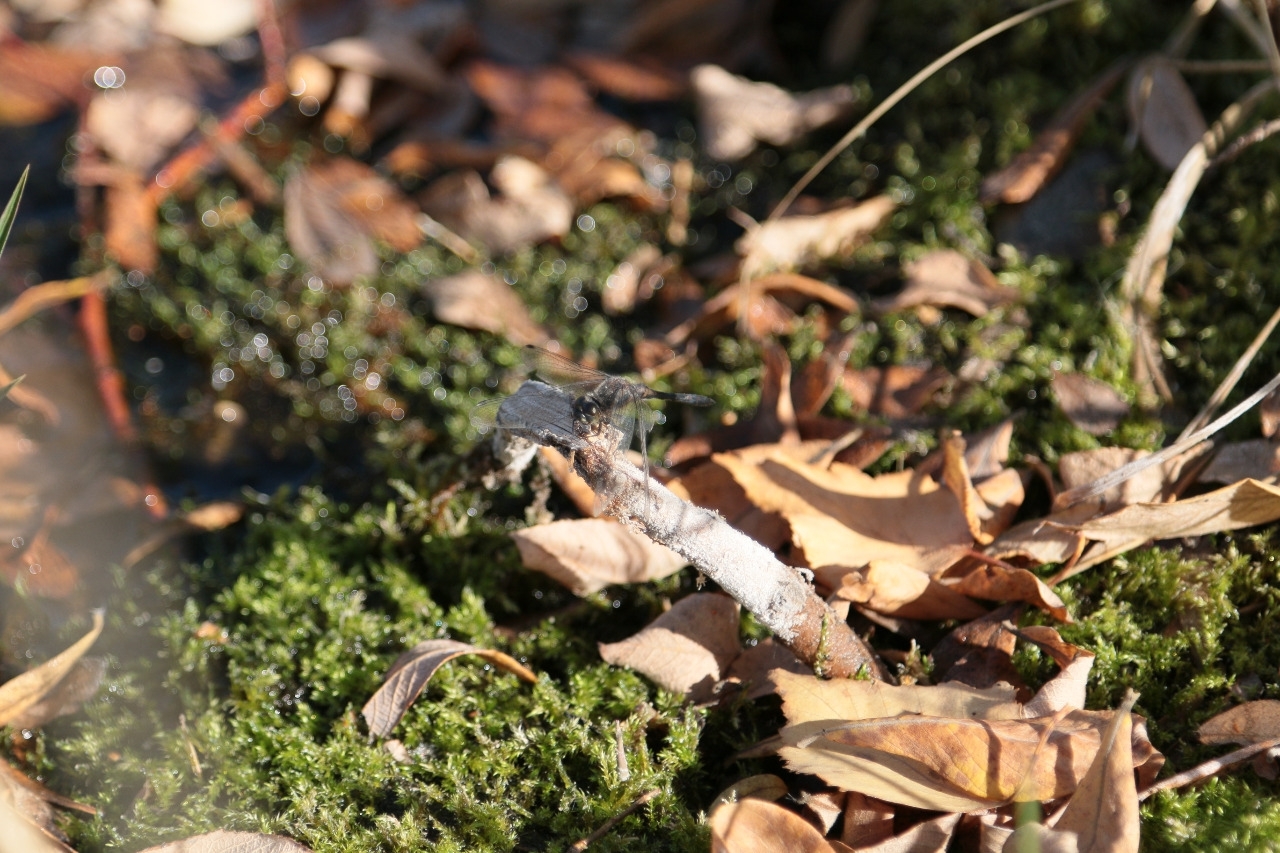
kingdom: Animalia
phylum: Arthropoda
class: Insecta
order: Odonata
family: Libellulidae
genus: Sympetrum
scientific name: Sympetrum danae
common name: Black darter
